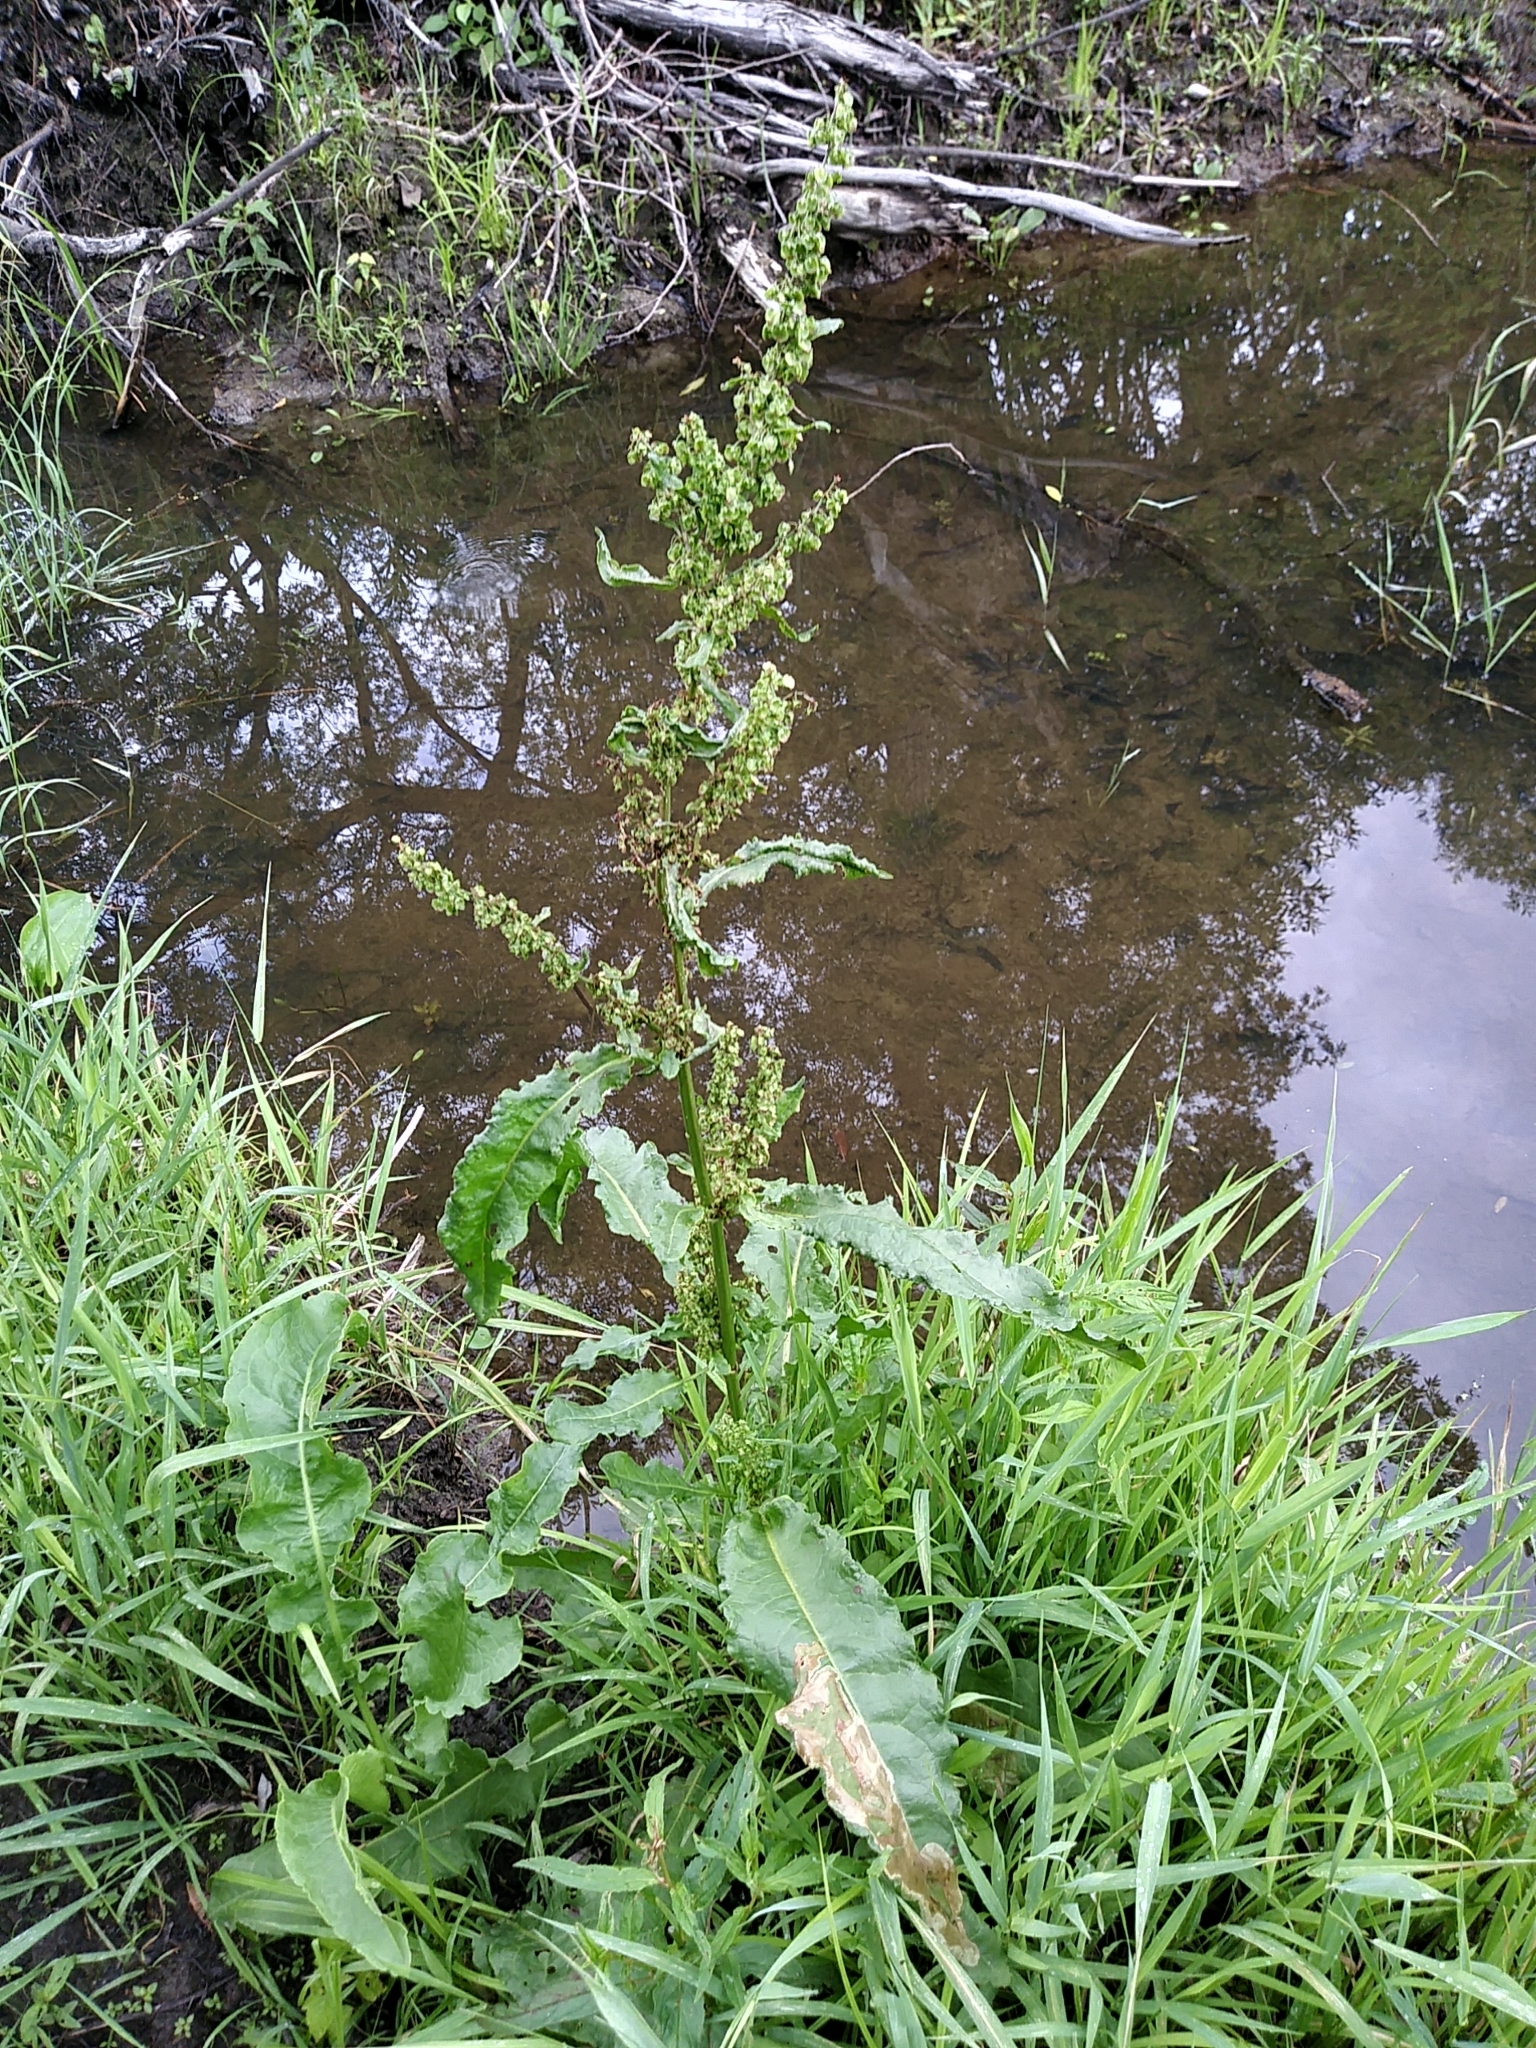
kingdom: Plantae
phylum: Tracheophyta
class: Magnoliopsida
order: Caryophyllales
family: Polygonaceae
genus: Rumex
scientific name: Rumex crispus
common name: Curled dock
